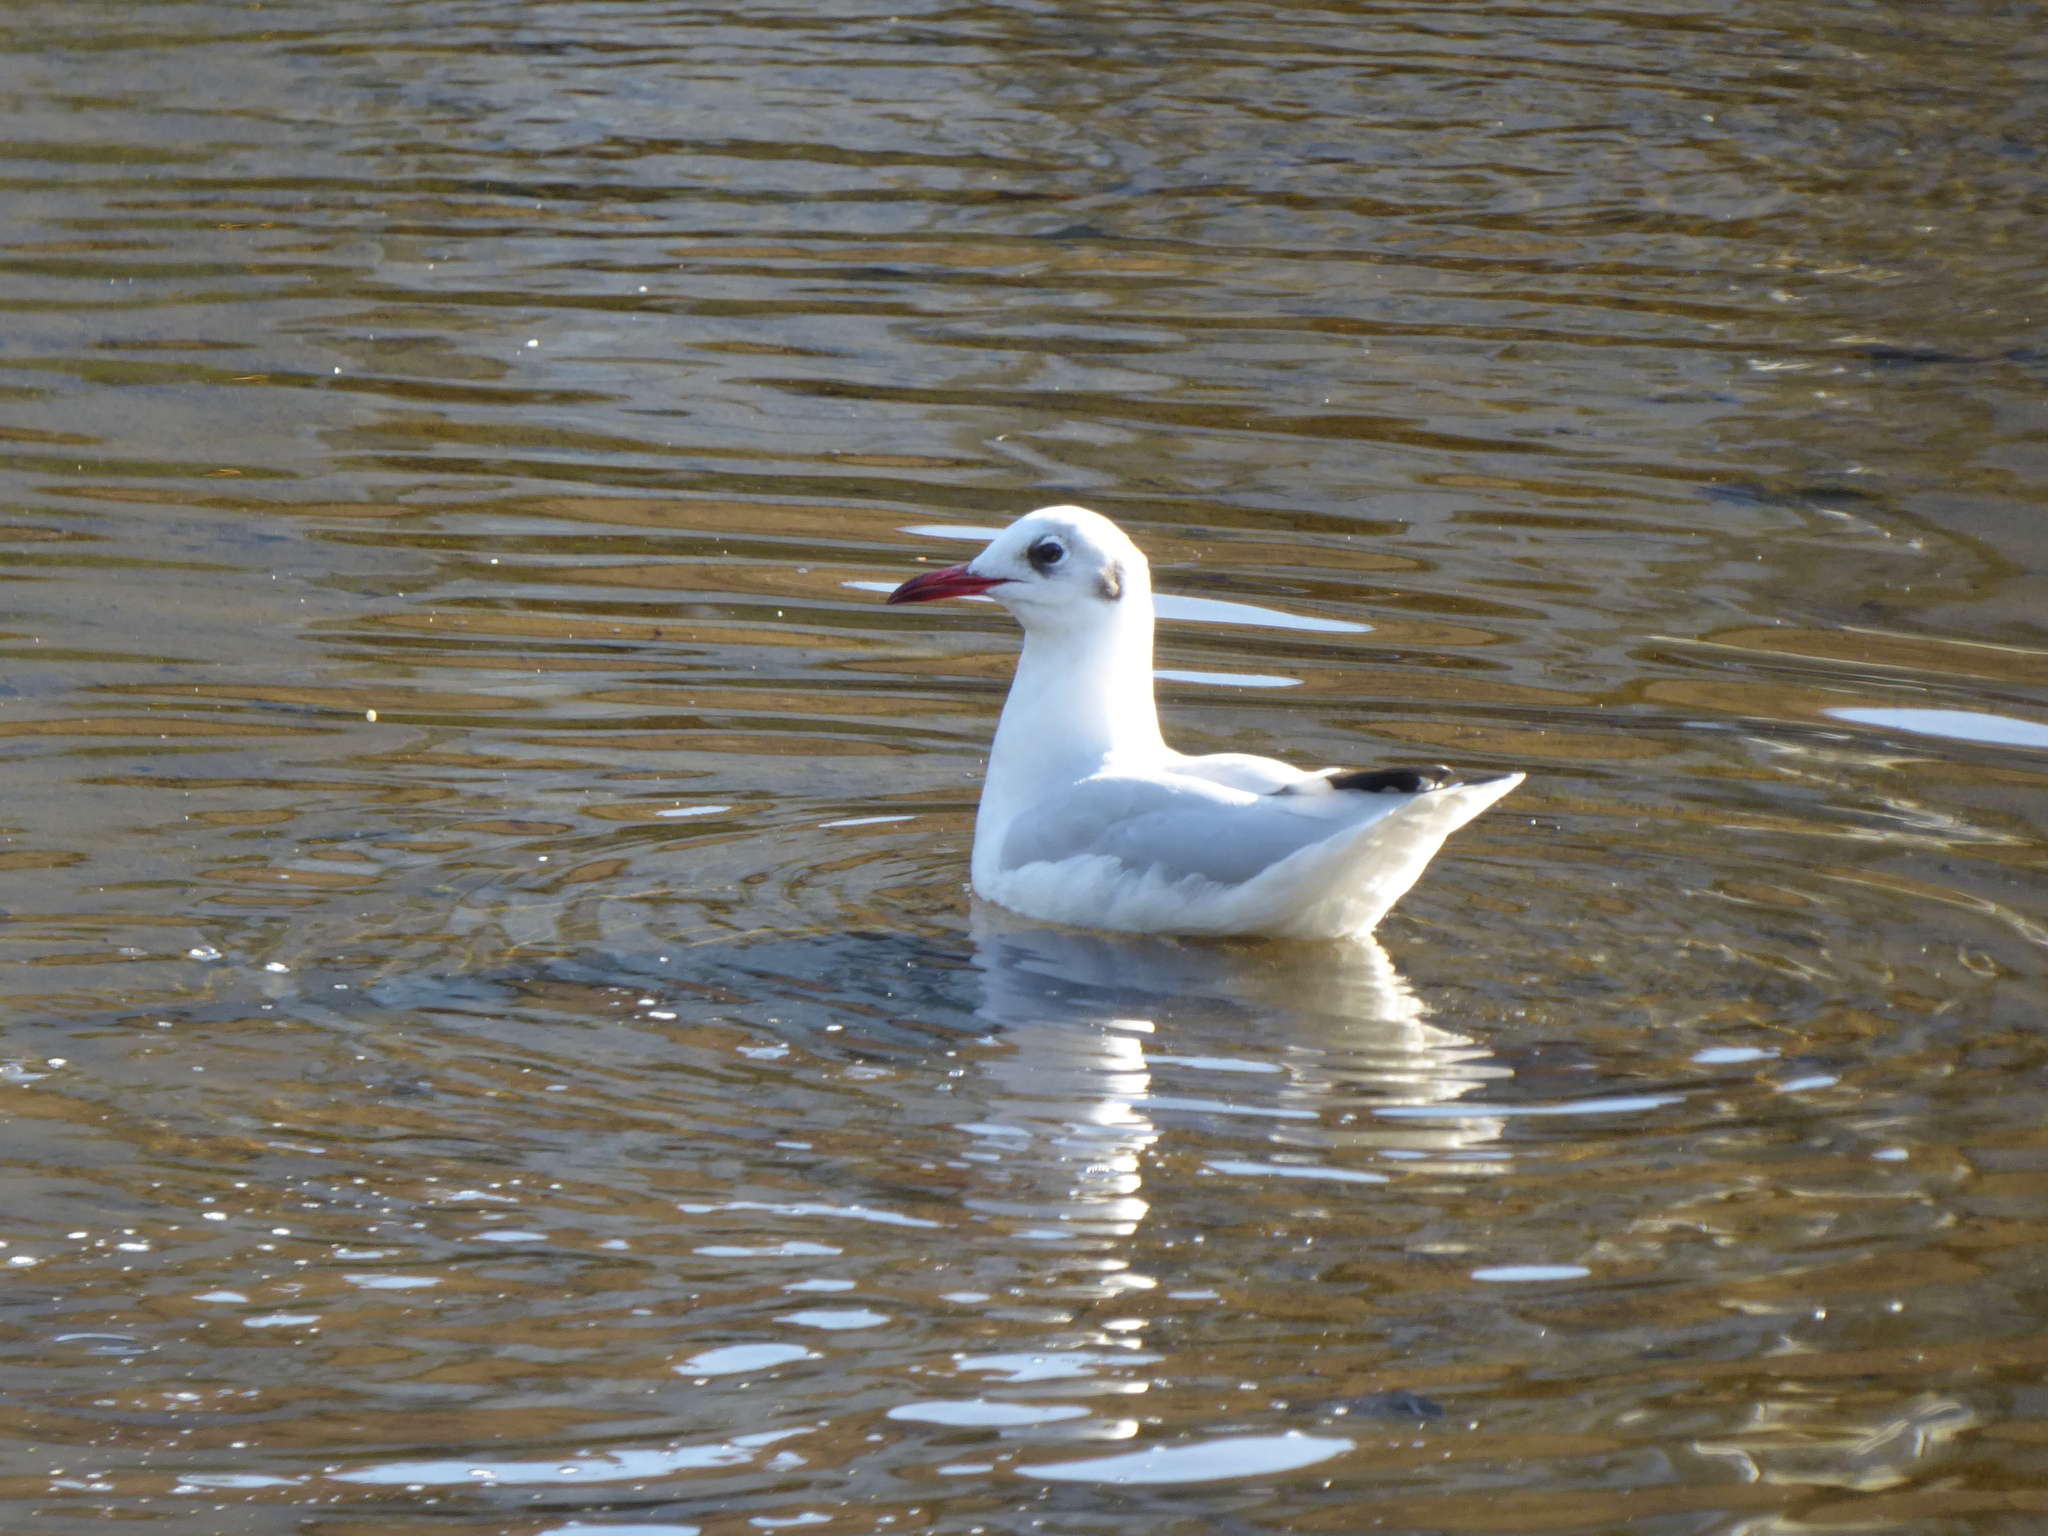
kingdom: Animalia
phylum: Chordata
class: Aves
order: Charadriiformes
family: Laridae
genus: Chroicocephalus
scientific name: Chroicocephalus ridibundus
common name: Black-headed gull
